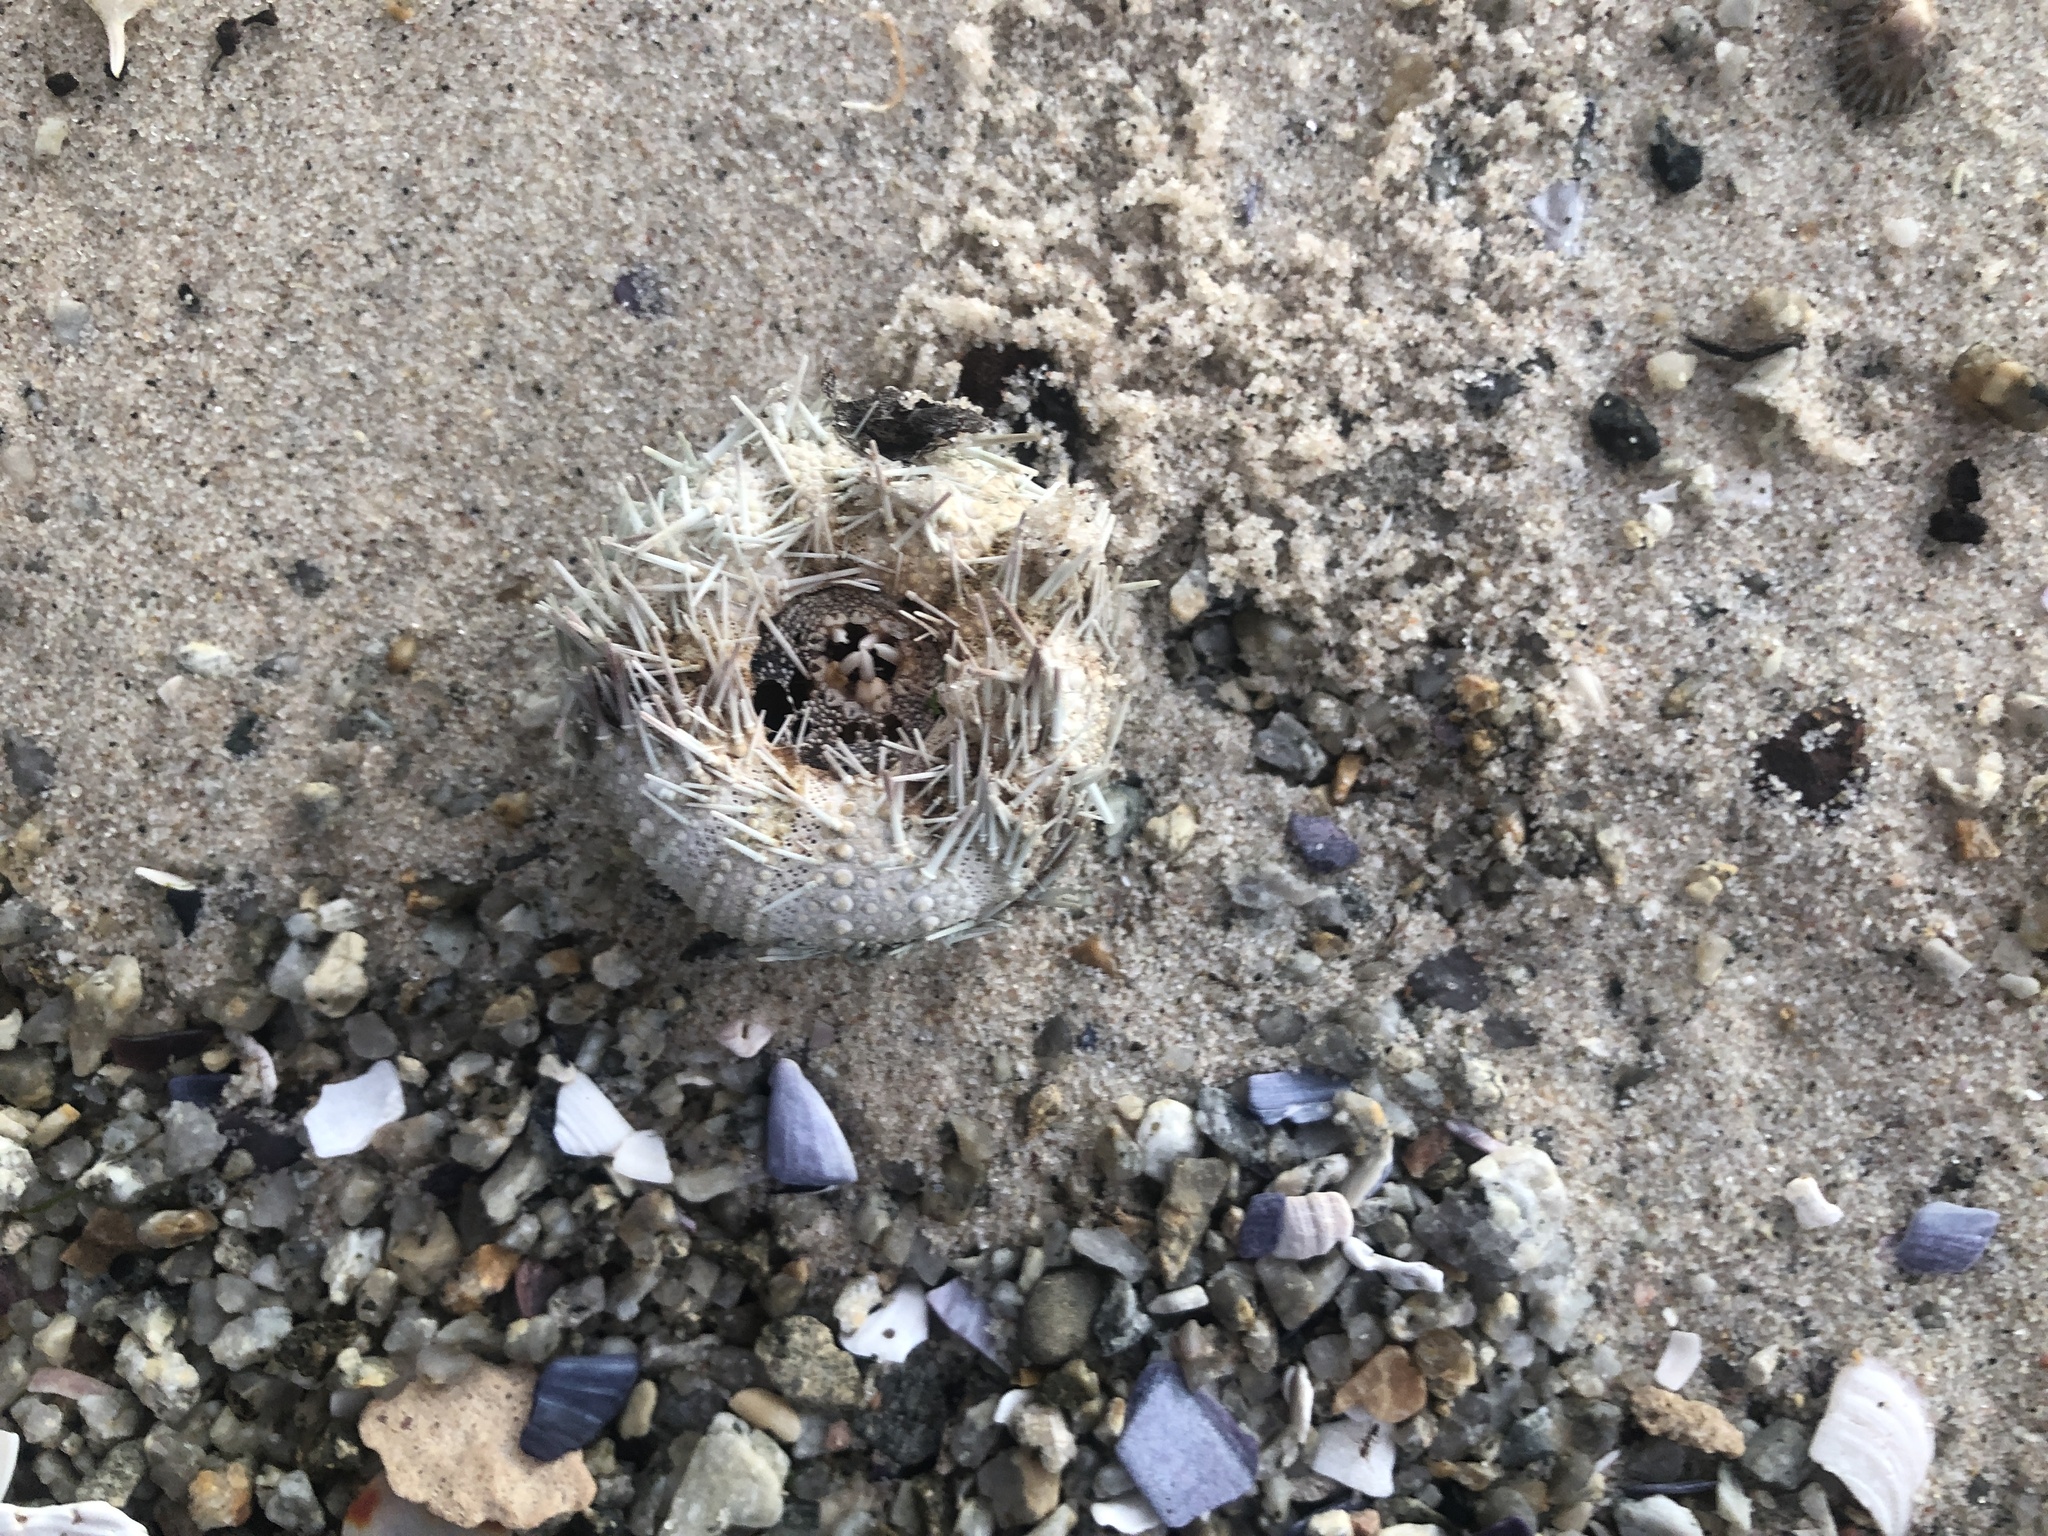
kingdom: Animalia
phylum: Echinodermata
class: Echinoidea
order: Camarodonta
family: Parechinidae
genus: Parechinus
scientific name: Parechinus angulosus
